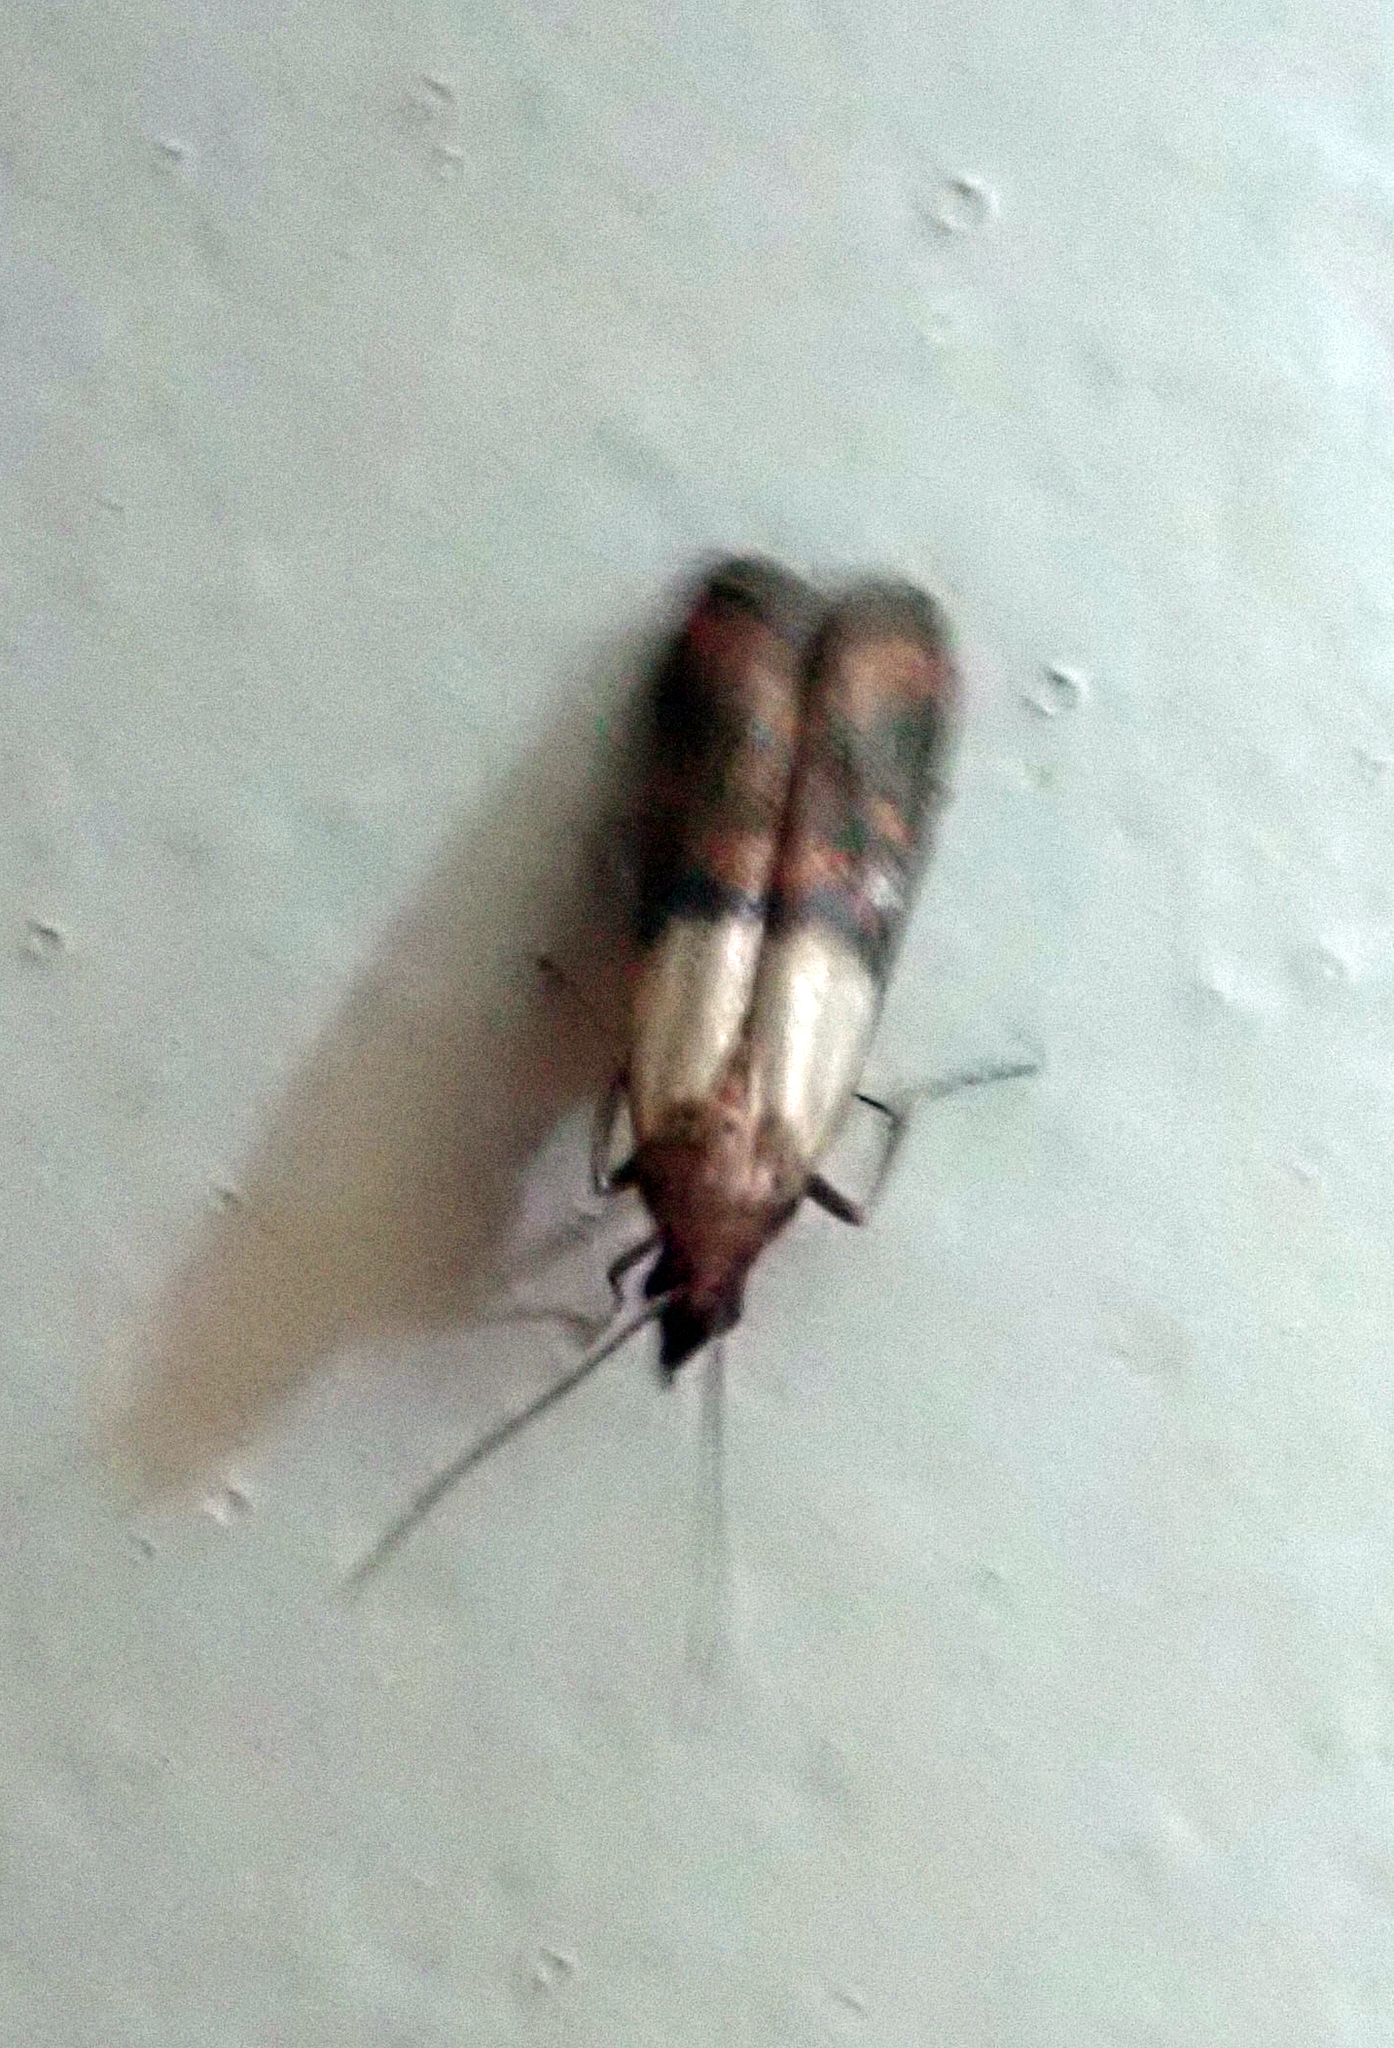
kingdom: Animalia
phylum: Arthropoda
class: Insecta
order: Lepidoptera
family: Pyralidae
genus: Plodia
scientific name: Plodia interpunctella
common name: Indian meal moth
